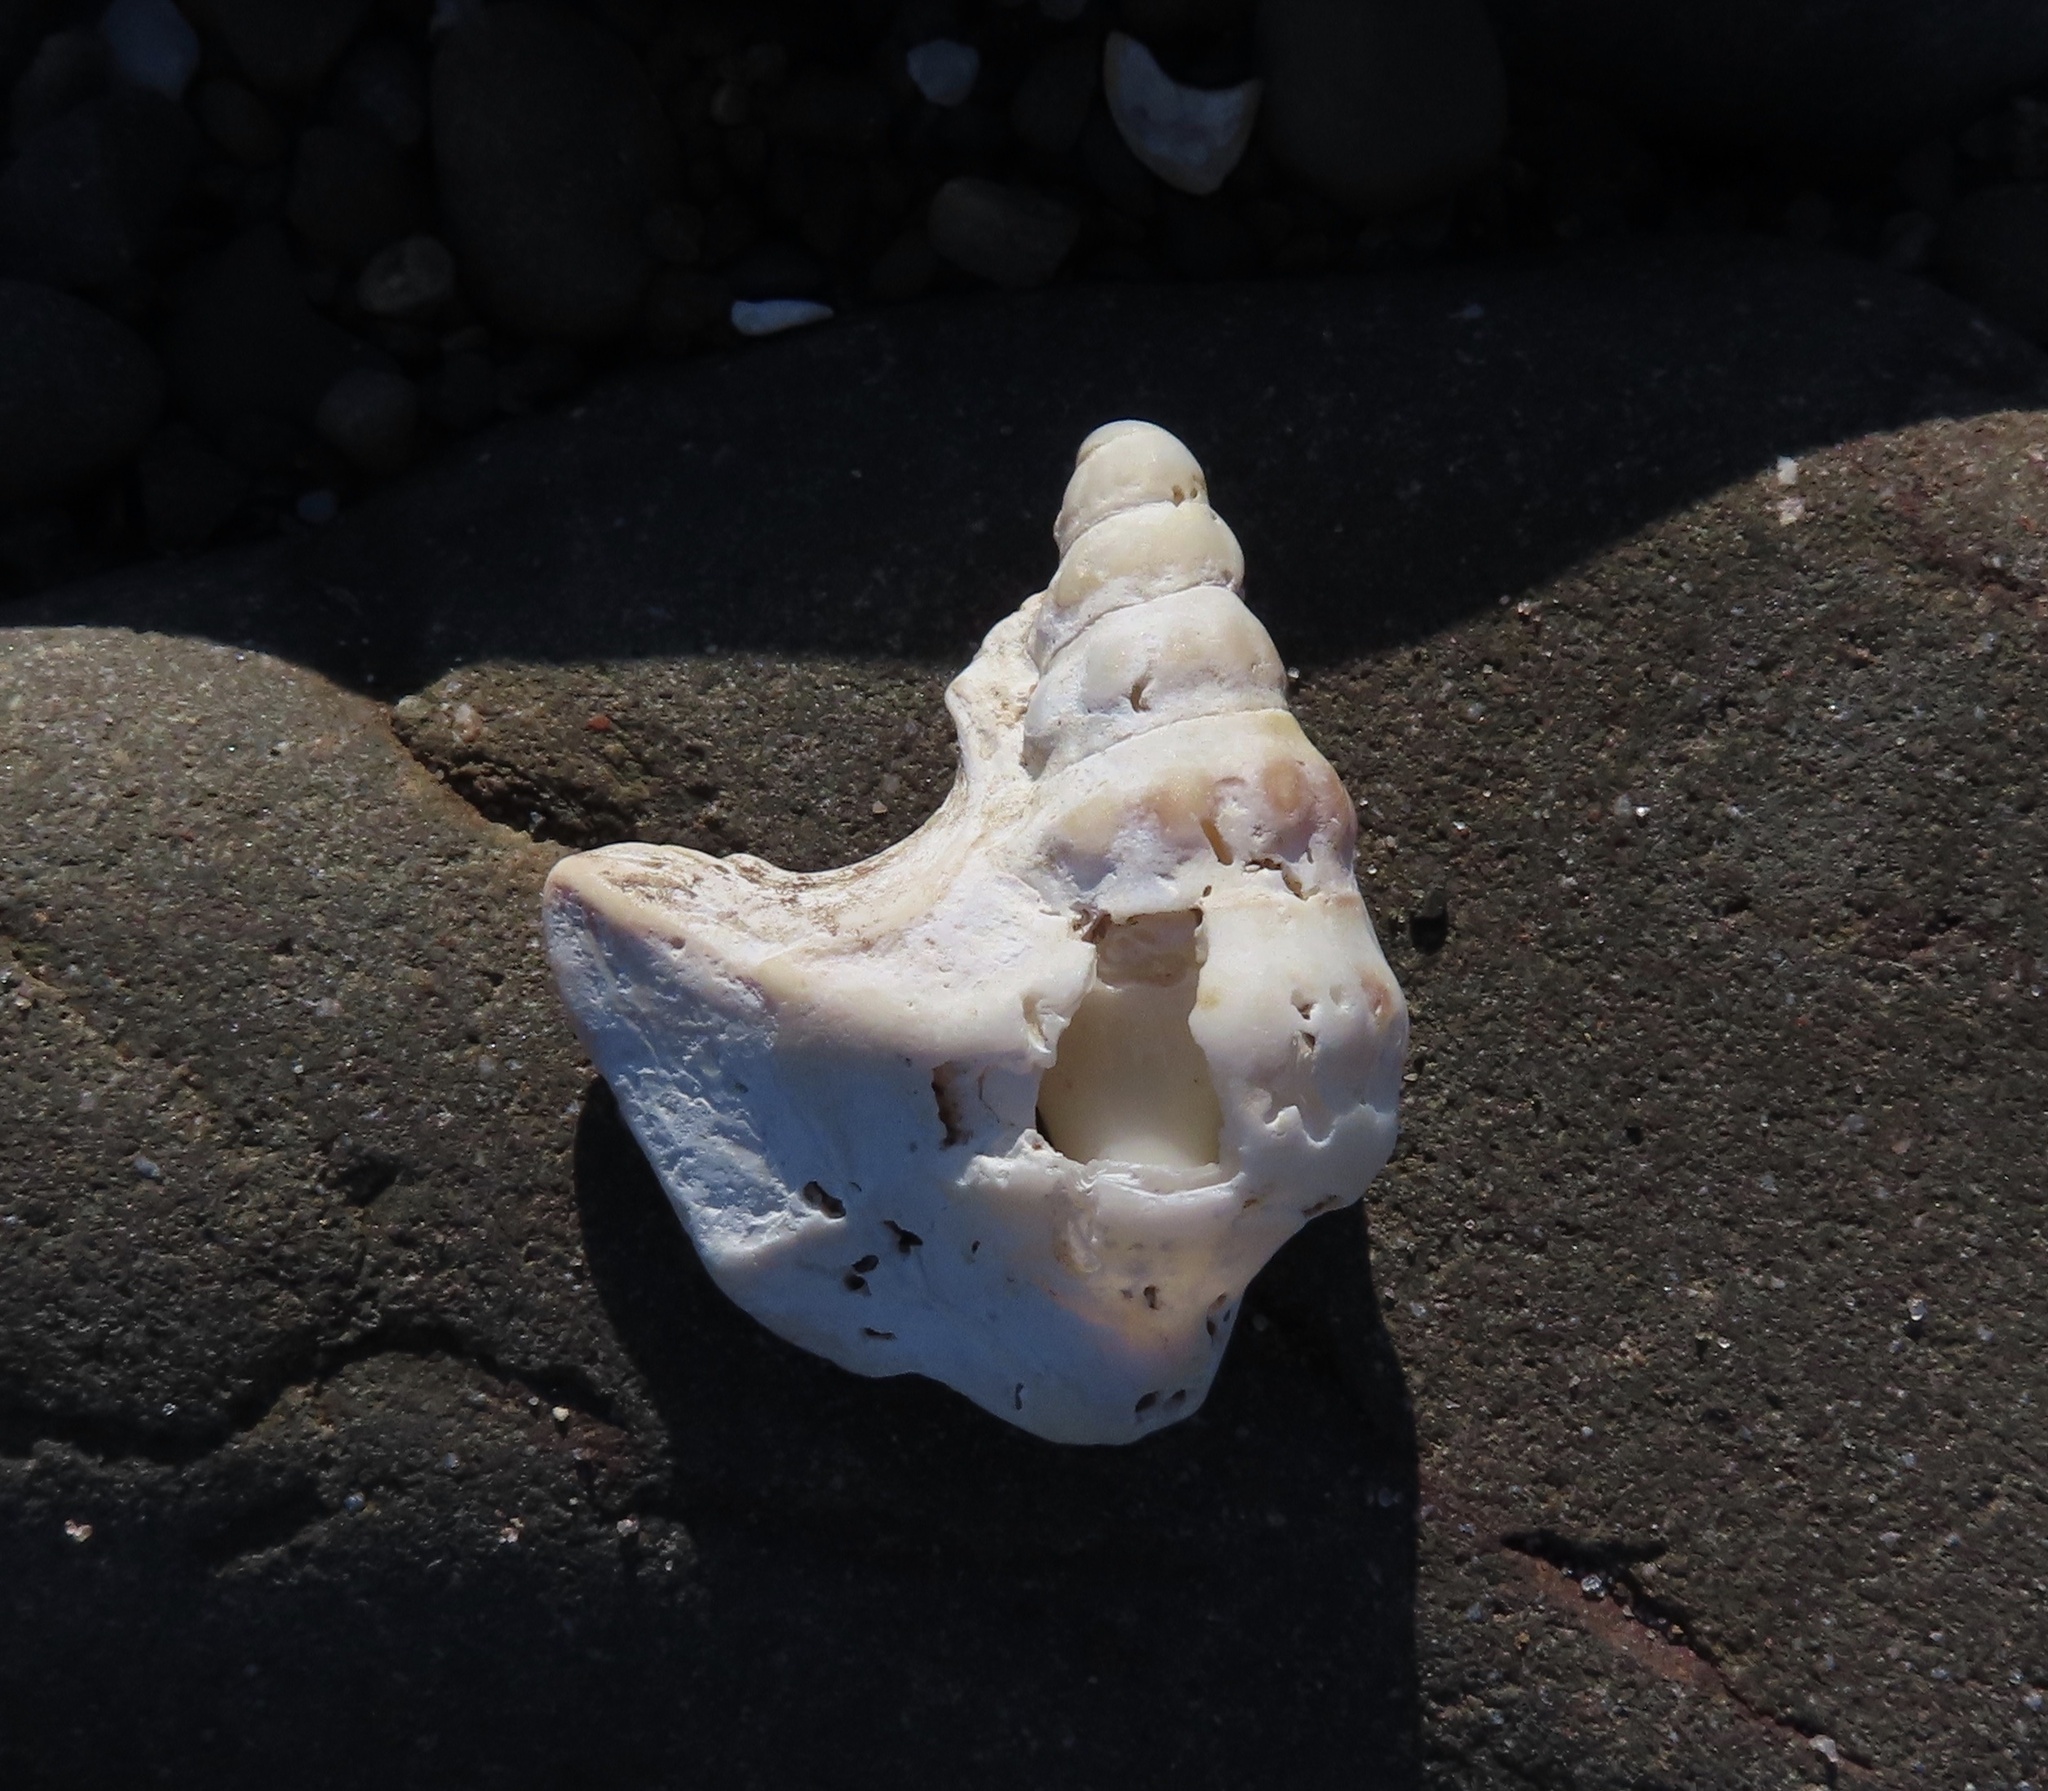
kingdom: Animalia
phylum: Mollusca
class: Gastropoda
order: Littorinimorpha
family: Aporrhaidae
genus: Aporrhais
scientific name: Aporrhais pespelecani
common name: Common pelican’s foot
